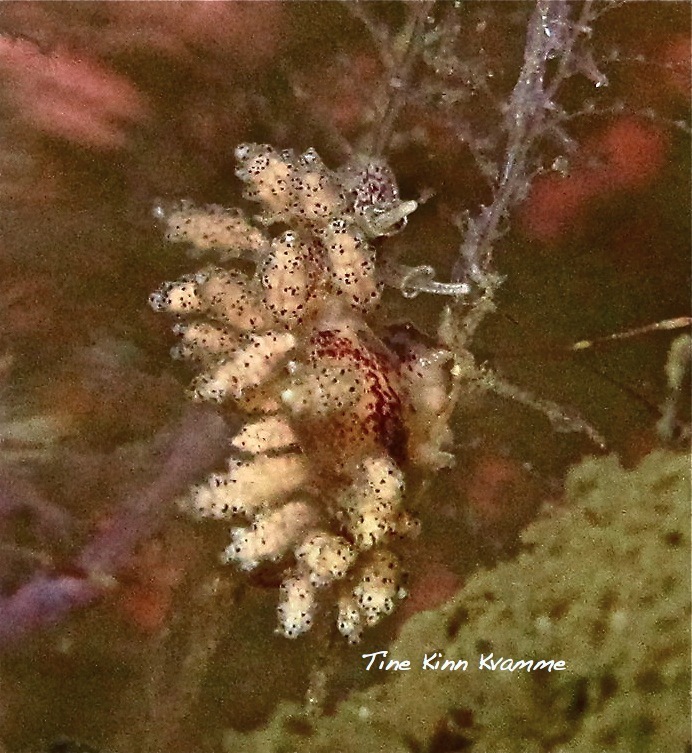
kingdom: Animalia
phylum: Mollusca
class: Gastropoda
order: Nudibranchia
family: Dotidae
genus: Doto
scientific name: Doto dunnei
